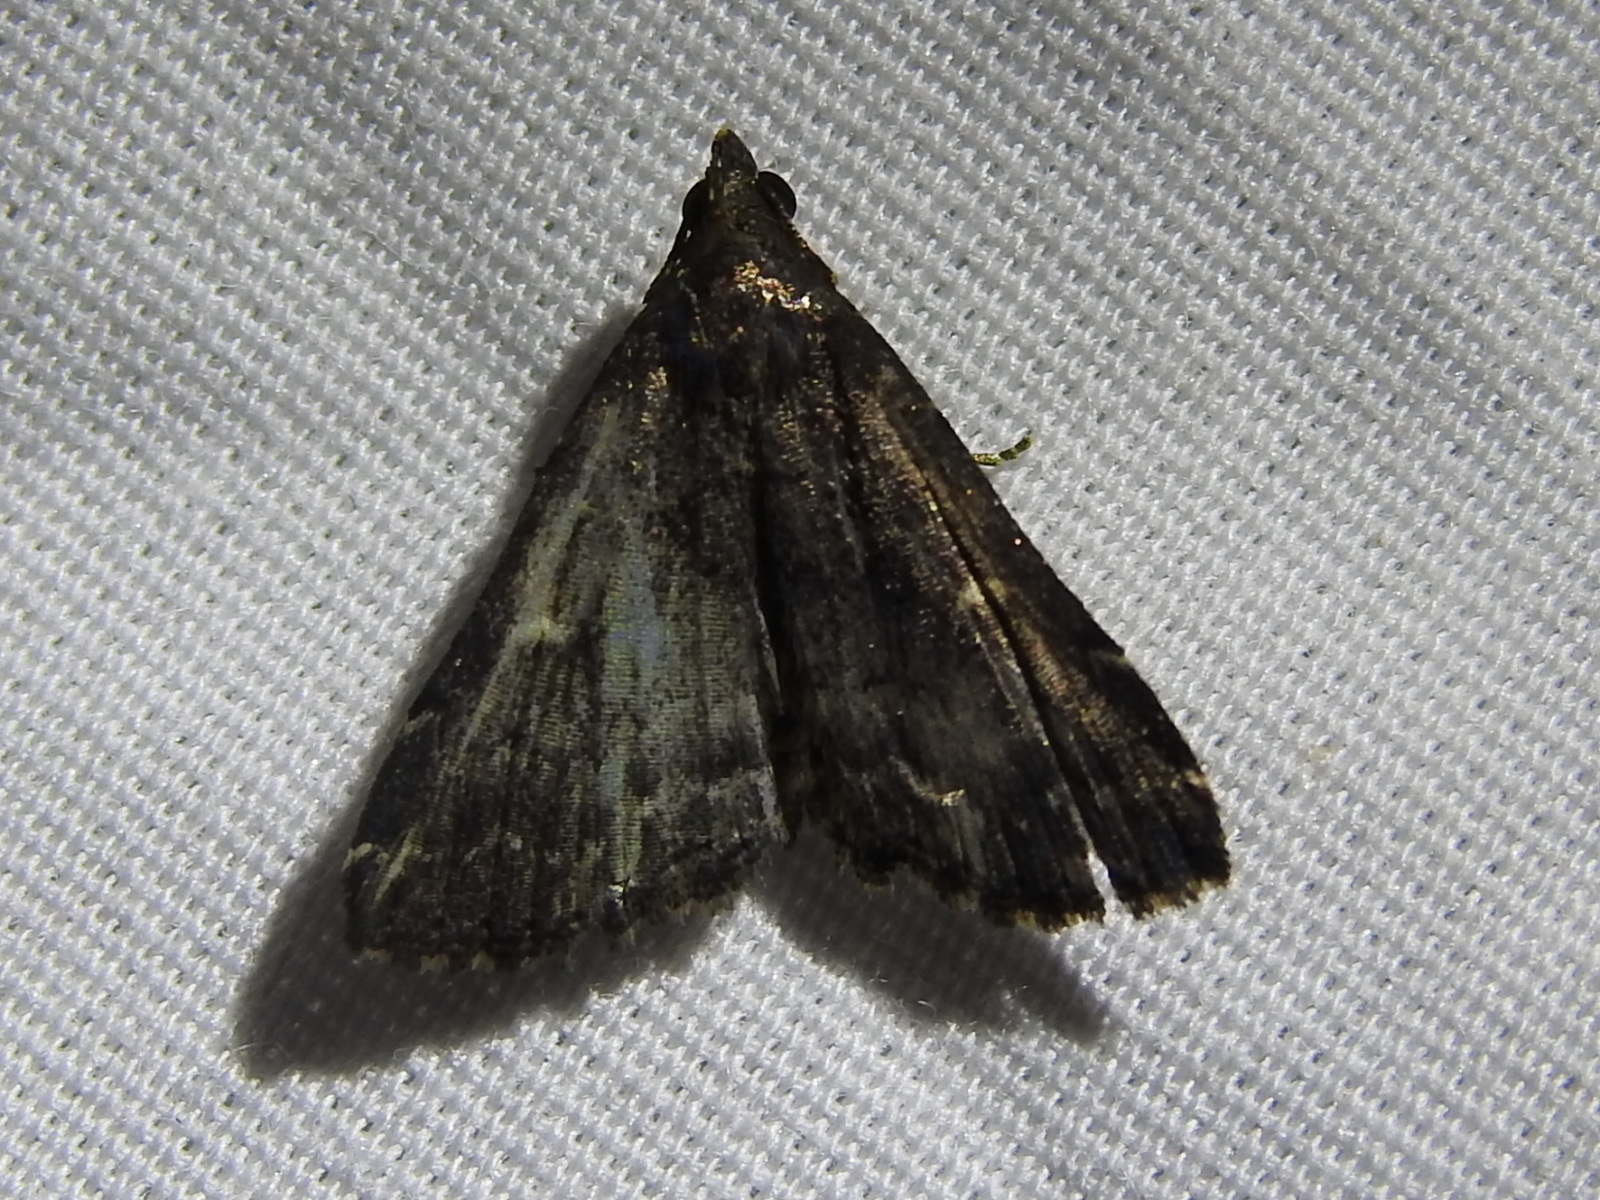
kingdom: Animalia
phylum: Arthropoda
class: Insecta
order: Lepidoptera
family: Erebidae
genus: Tetanolita
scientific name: Tetanolita mynesalis
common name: Smoky tetanolita moth
